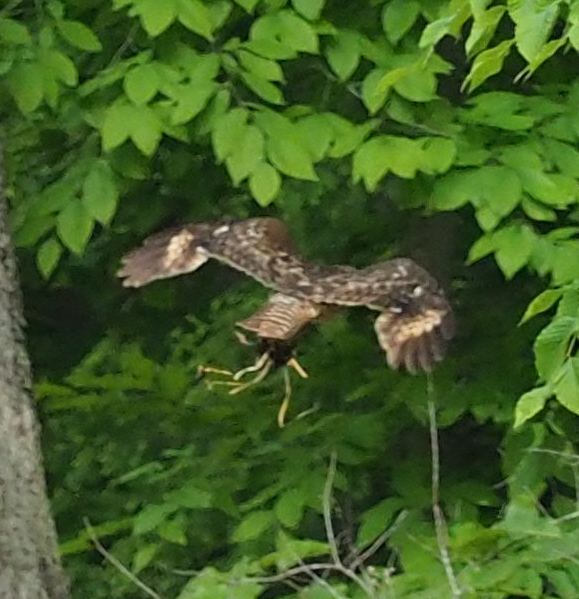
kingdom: Animalia
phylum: Chordata
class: Aves
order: Accipitriformes
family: Accipitridae
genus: Buteo
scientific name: Buteo lineatus
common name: Red-shouldered hawk
